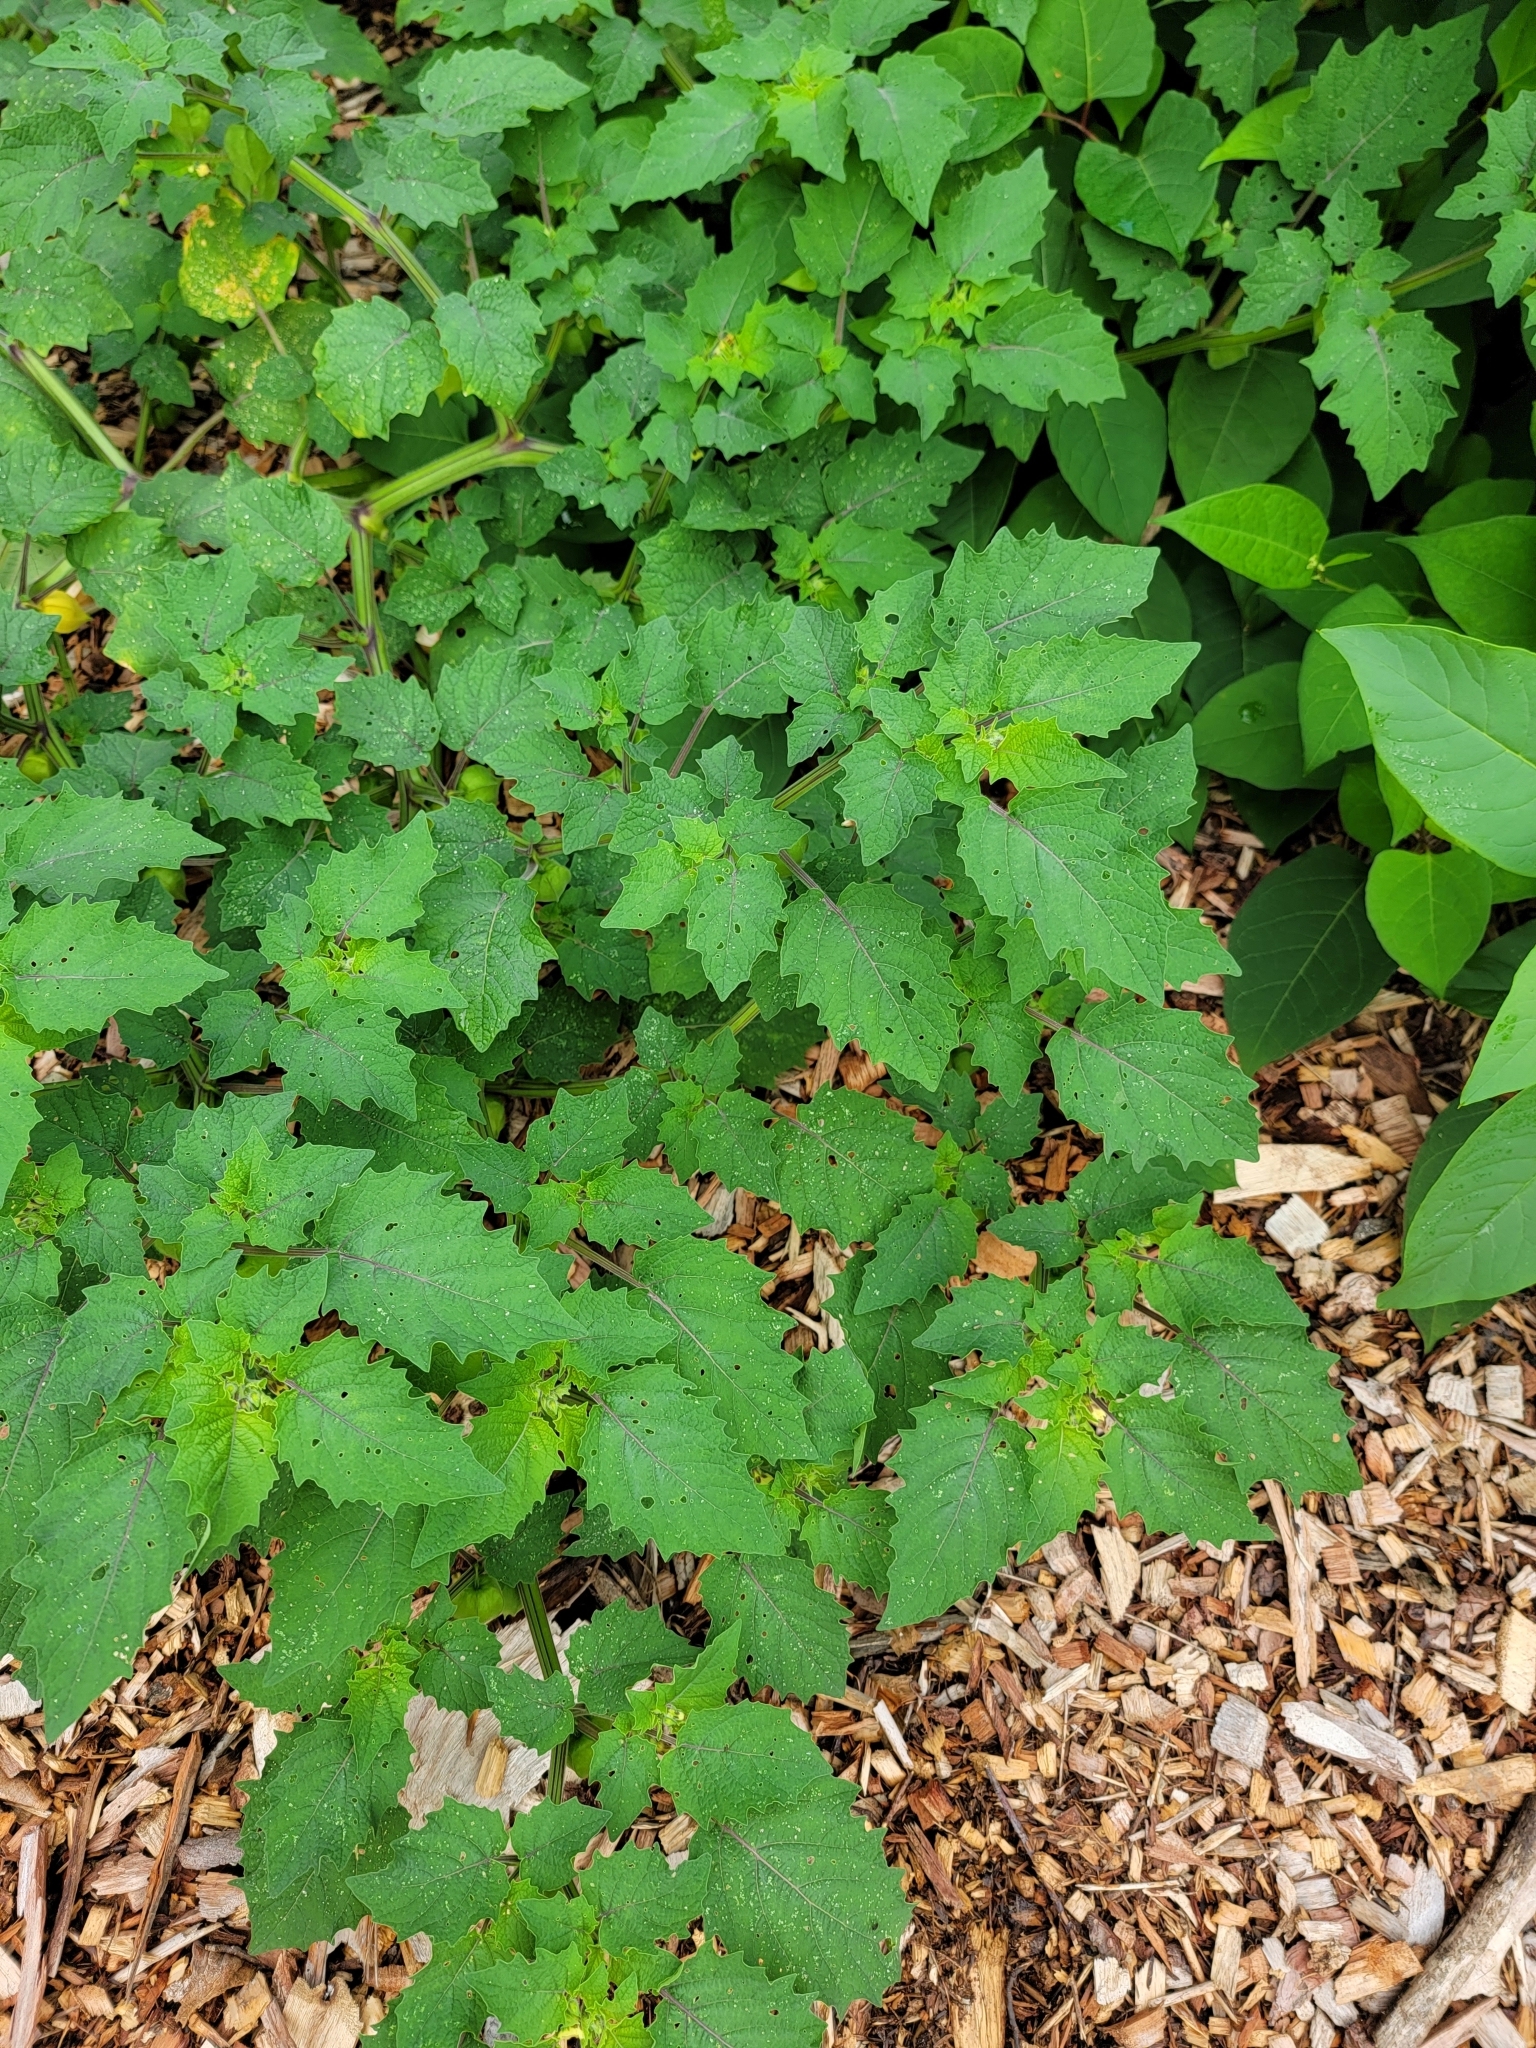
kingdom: Plantae
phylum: Tracheophyta
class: Magnoliopsida
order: Solanales
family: Solanaceae
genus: Physalis
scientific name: Physalis grisea
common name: Dwarf cape-gooseberry
